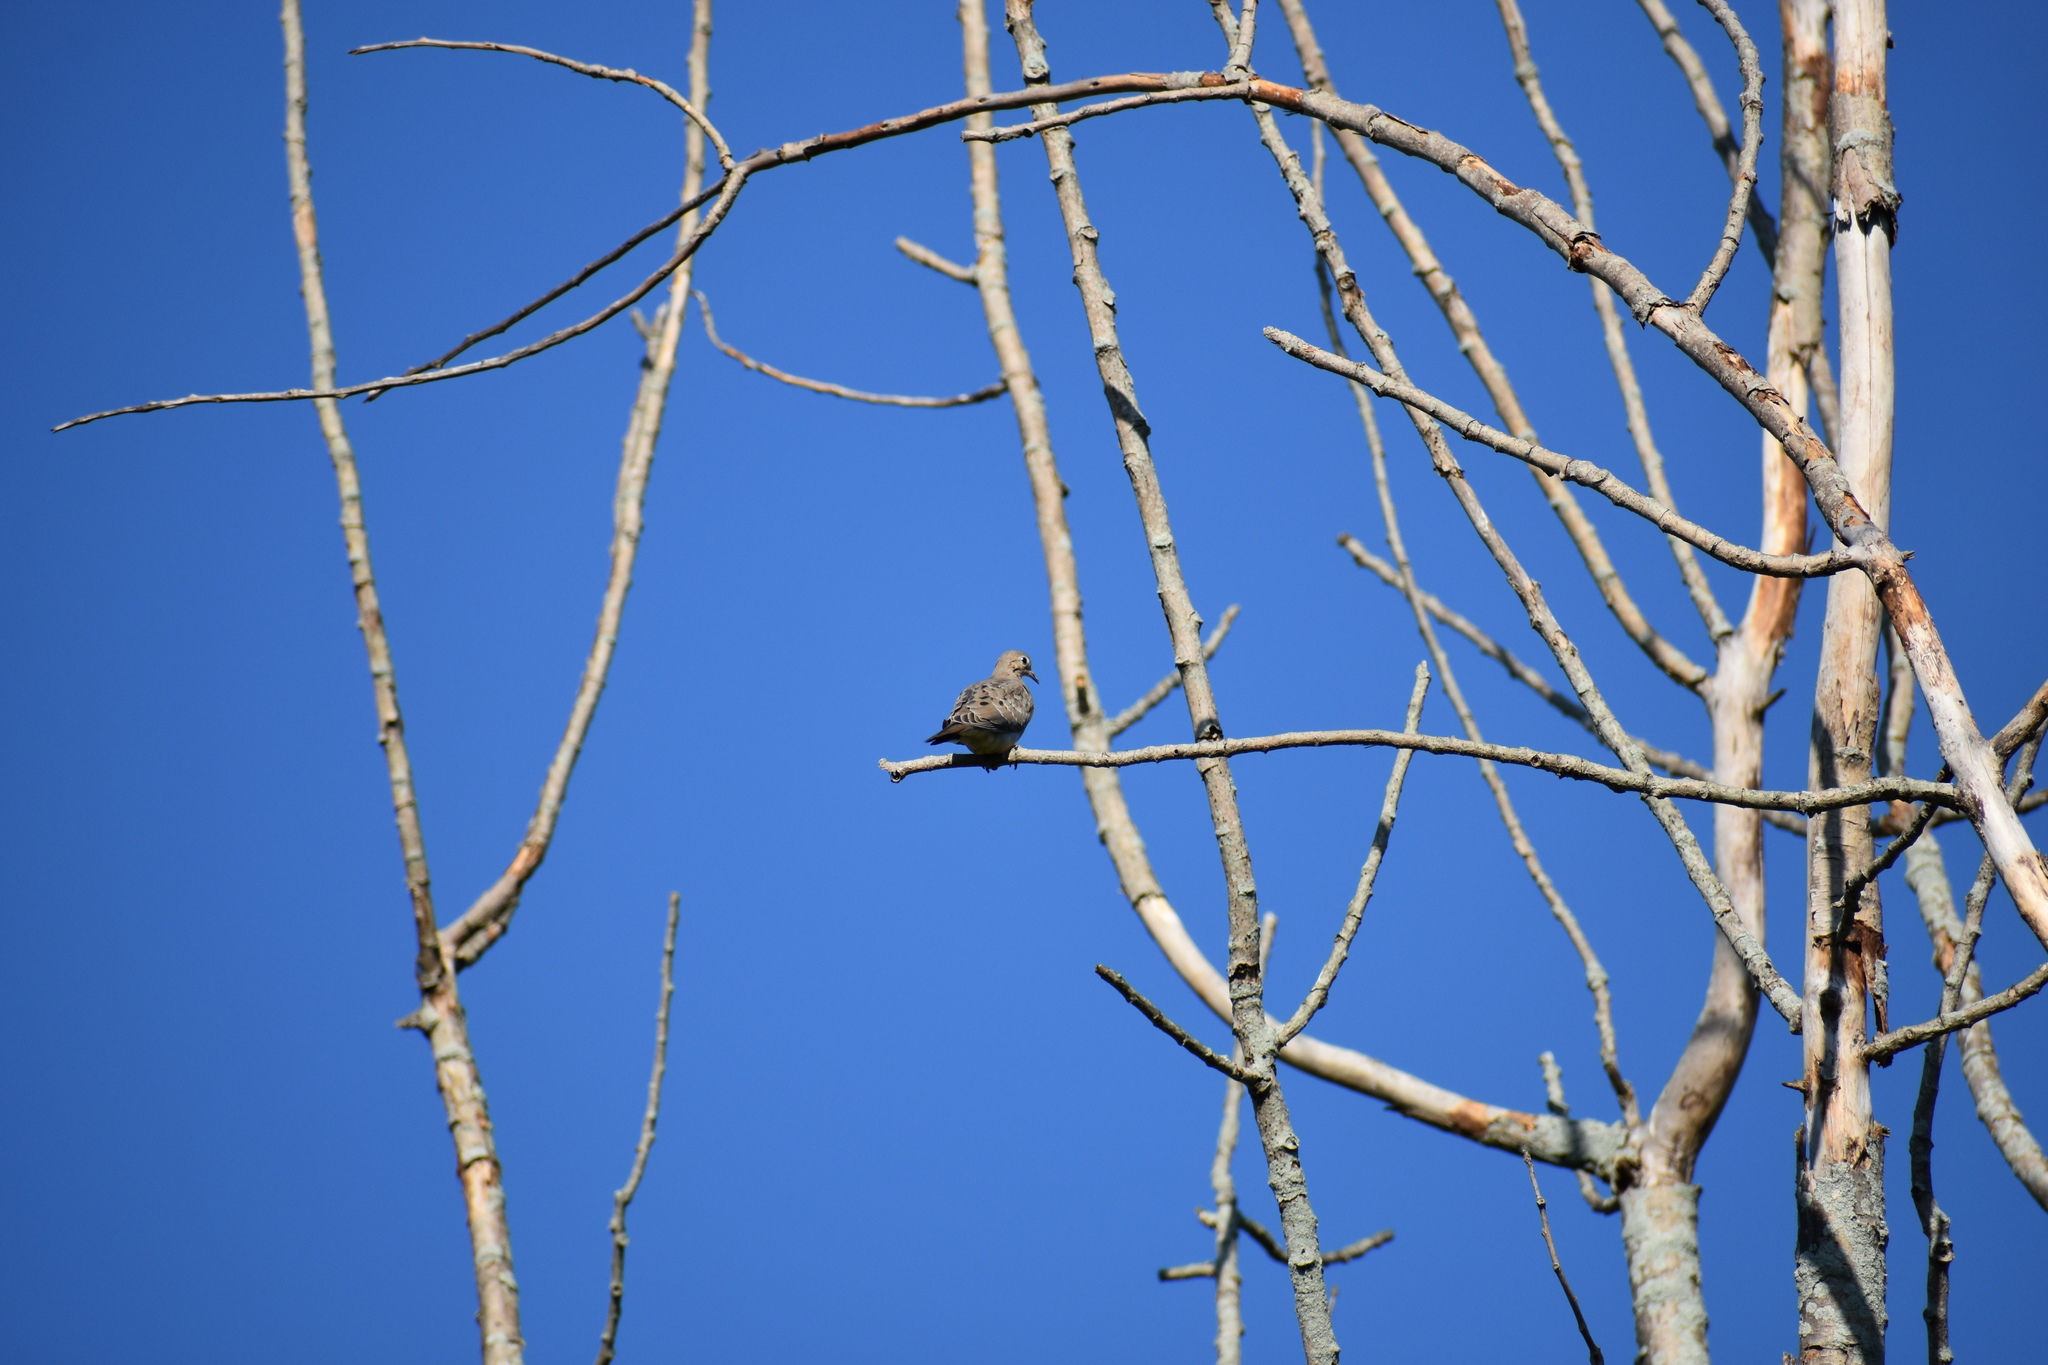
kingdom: Animalia
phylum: Chordata
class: Aves
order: Columbiformes
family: Columbidae
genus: Zenaida
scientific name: Zenaida macroura
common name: Mourning dove
